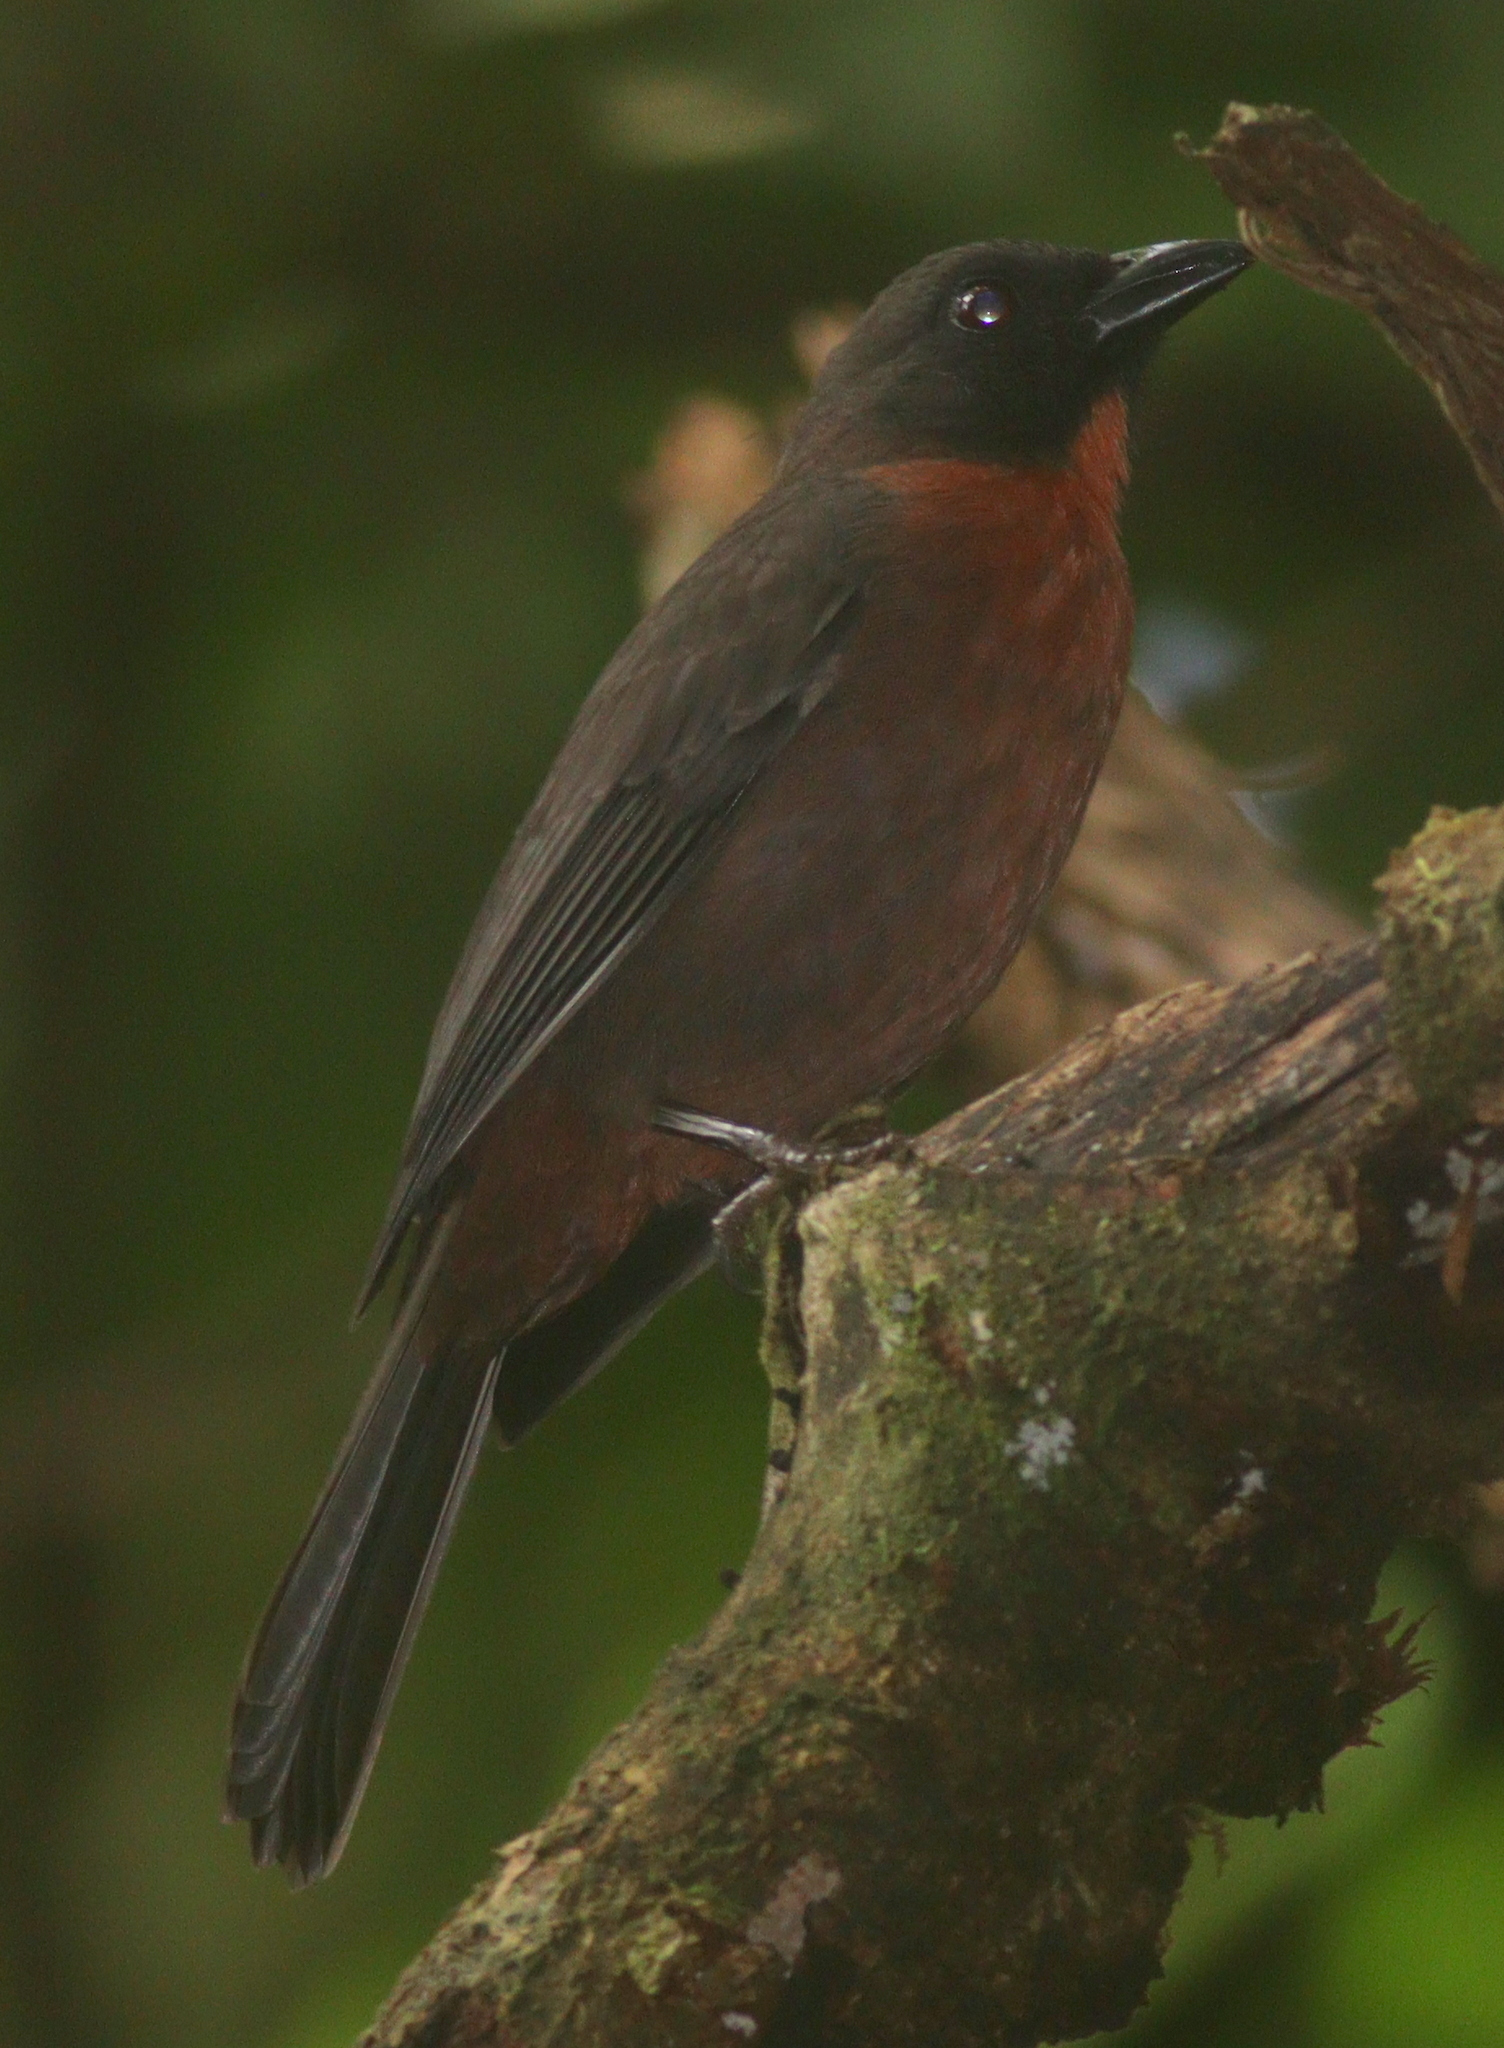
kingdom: Animalia
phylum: Chordata
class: Aves
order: Passeriformes
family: Cardinalidae
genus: Habia
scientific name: Habia atrimaxillaris
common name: Black-cheeked ant-tanager
